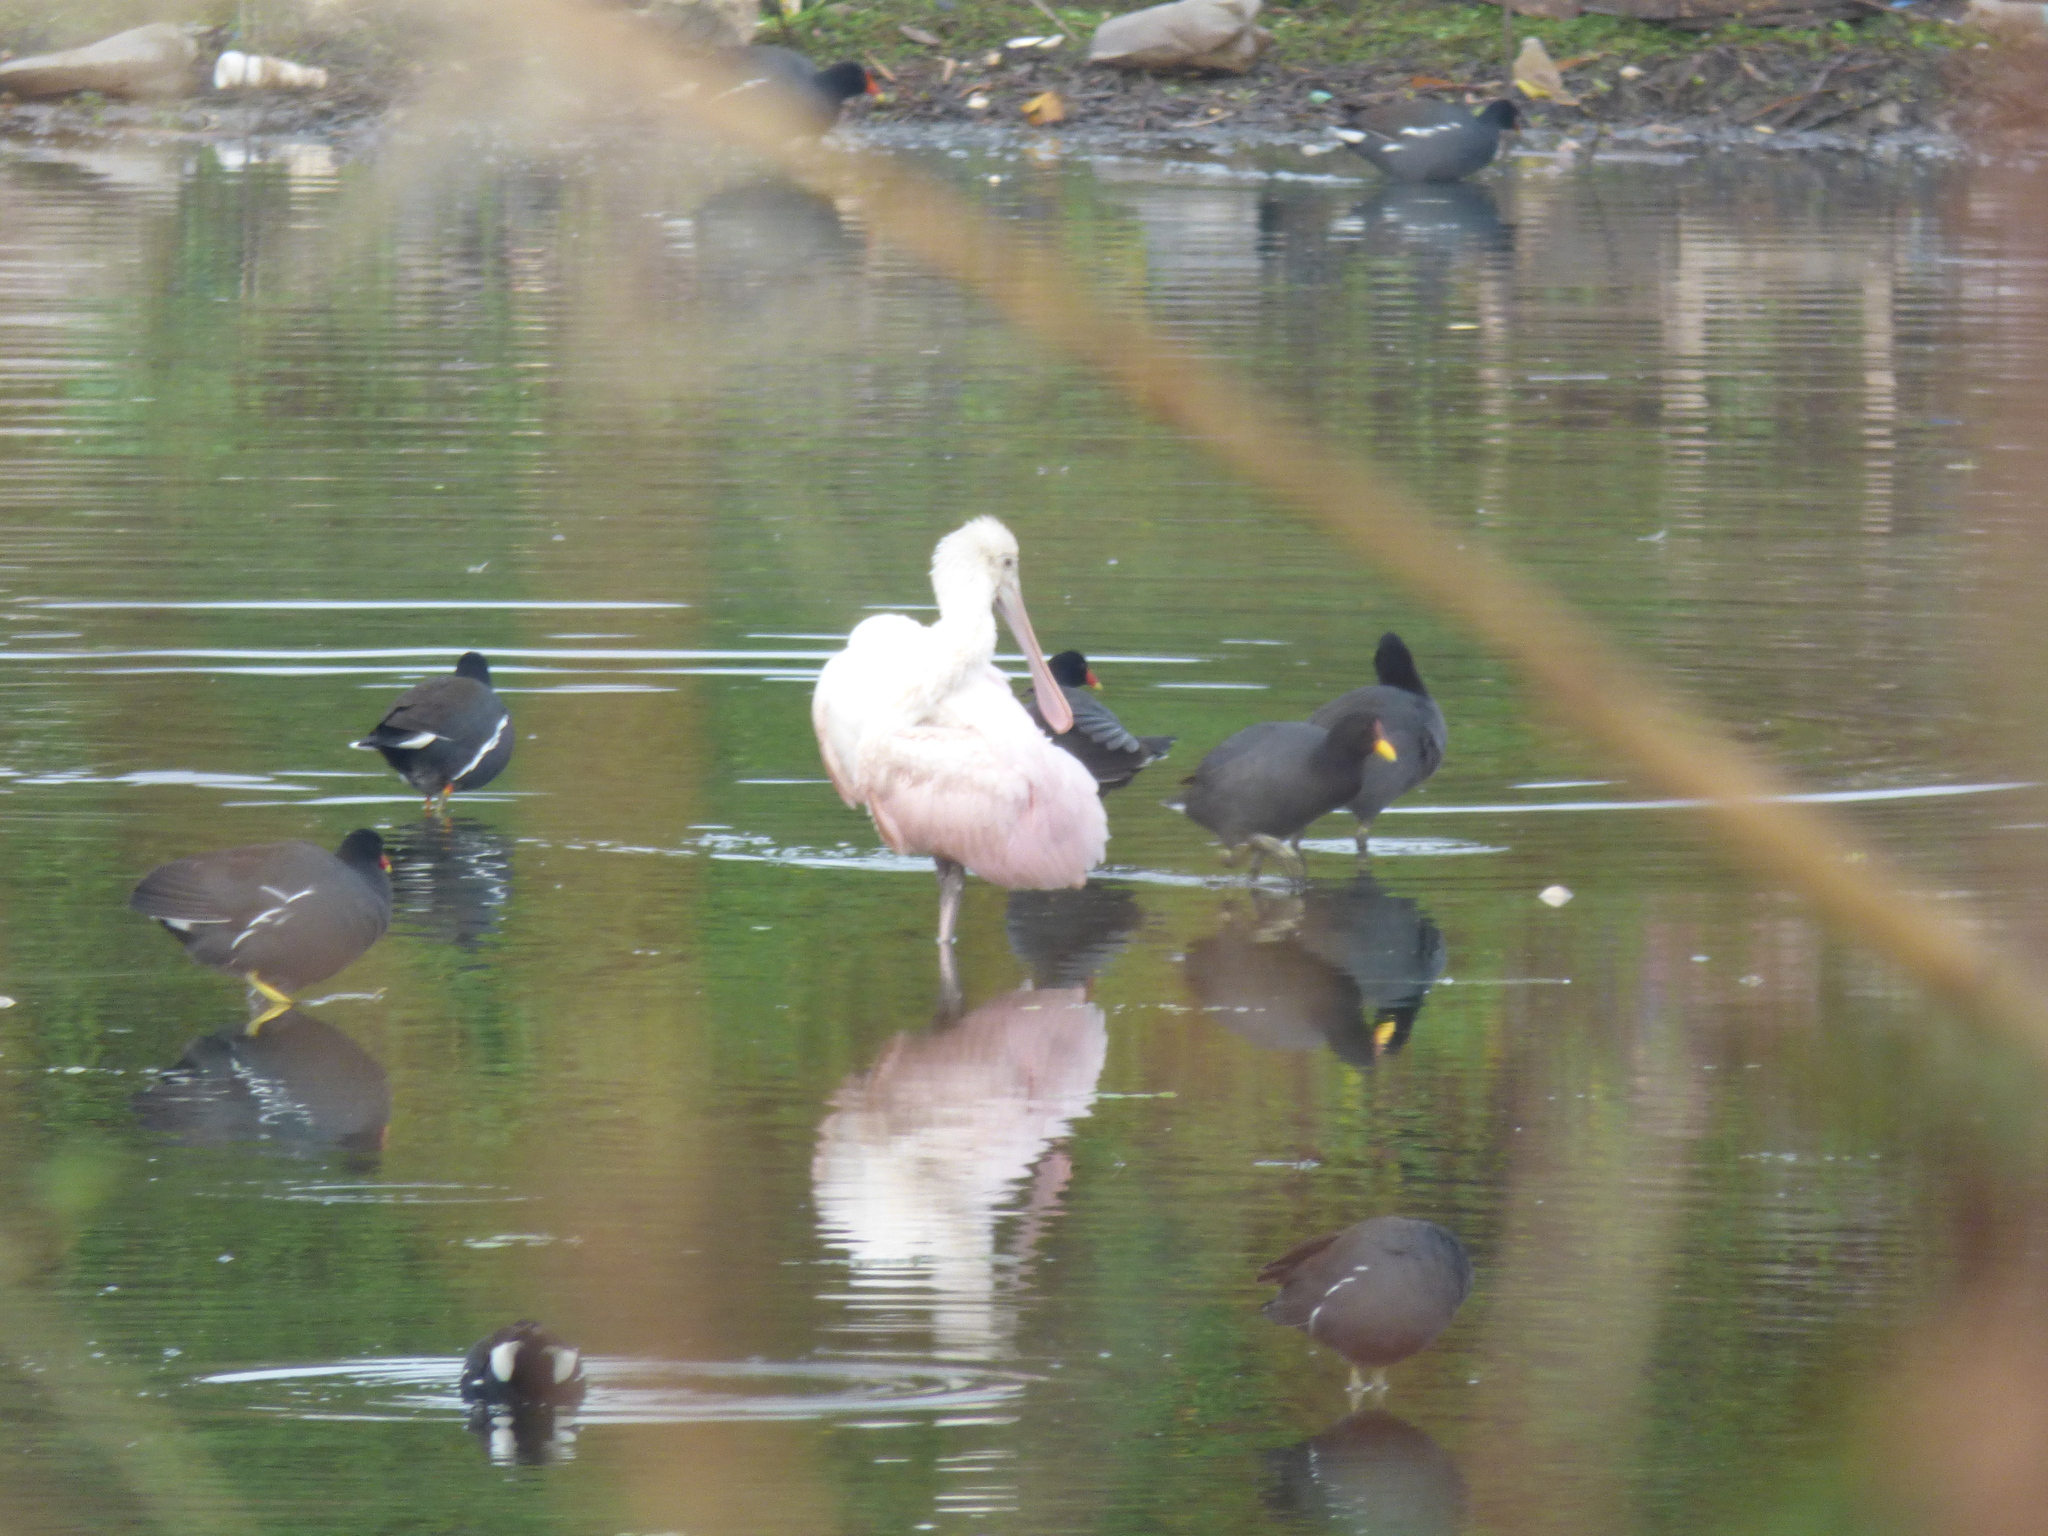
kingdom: Animalia
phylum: Chordata
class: Aves
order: Pelecaniformes
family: Threskiornithidae
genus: Platalea
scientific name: Platalea ajaja
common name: Roseate spoonbill
